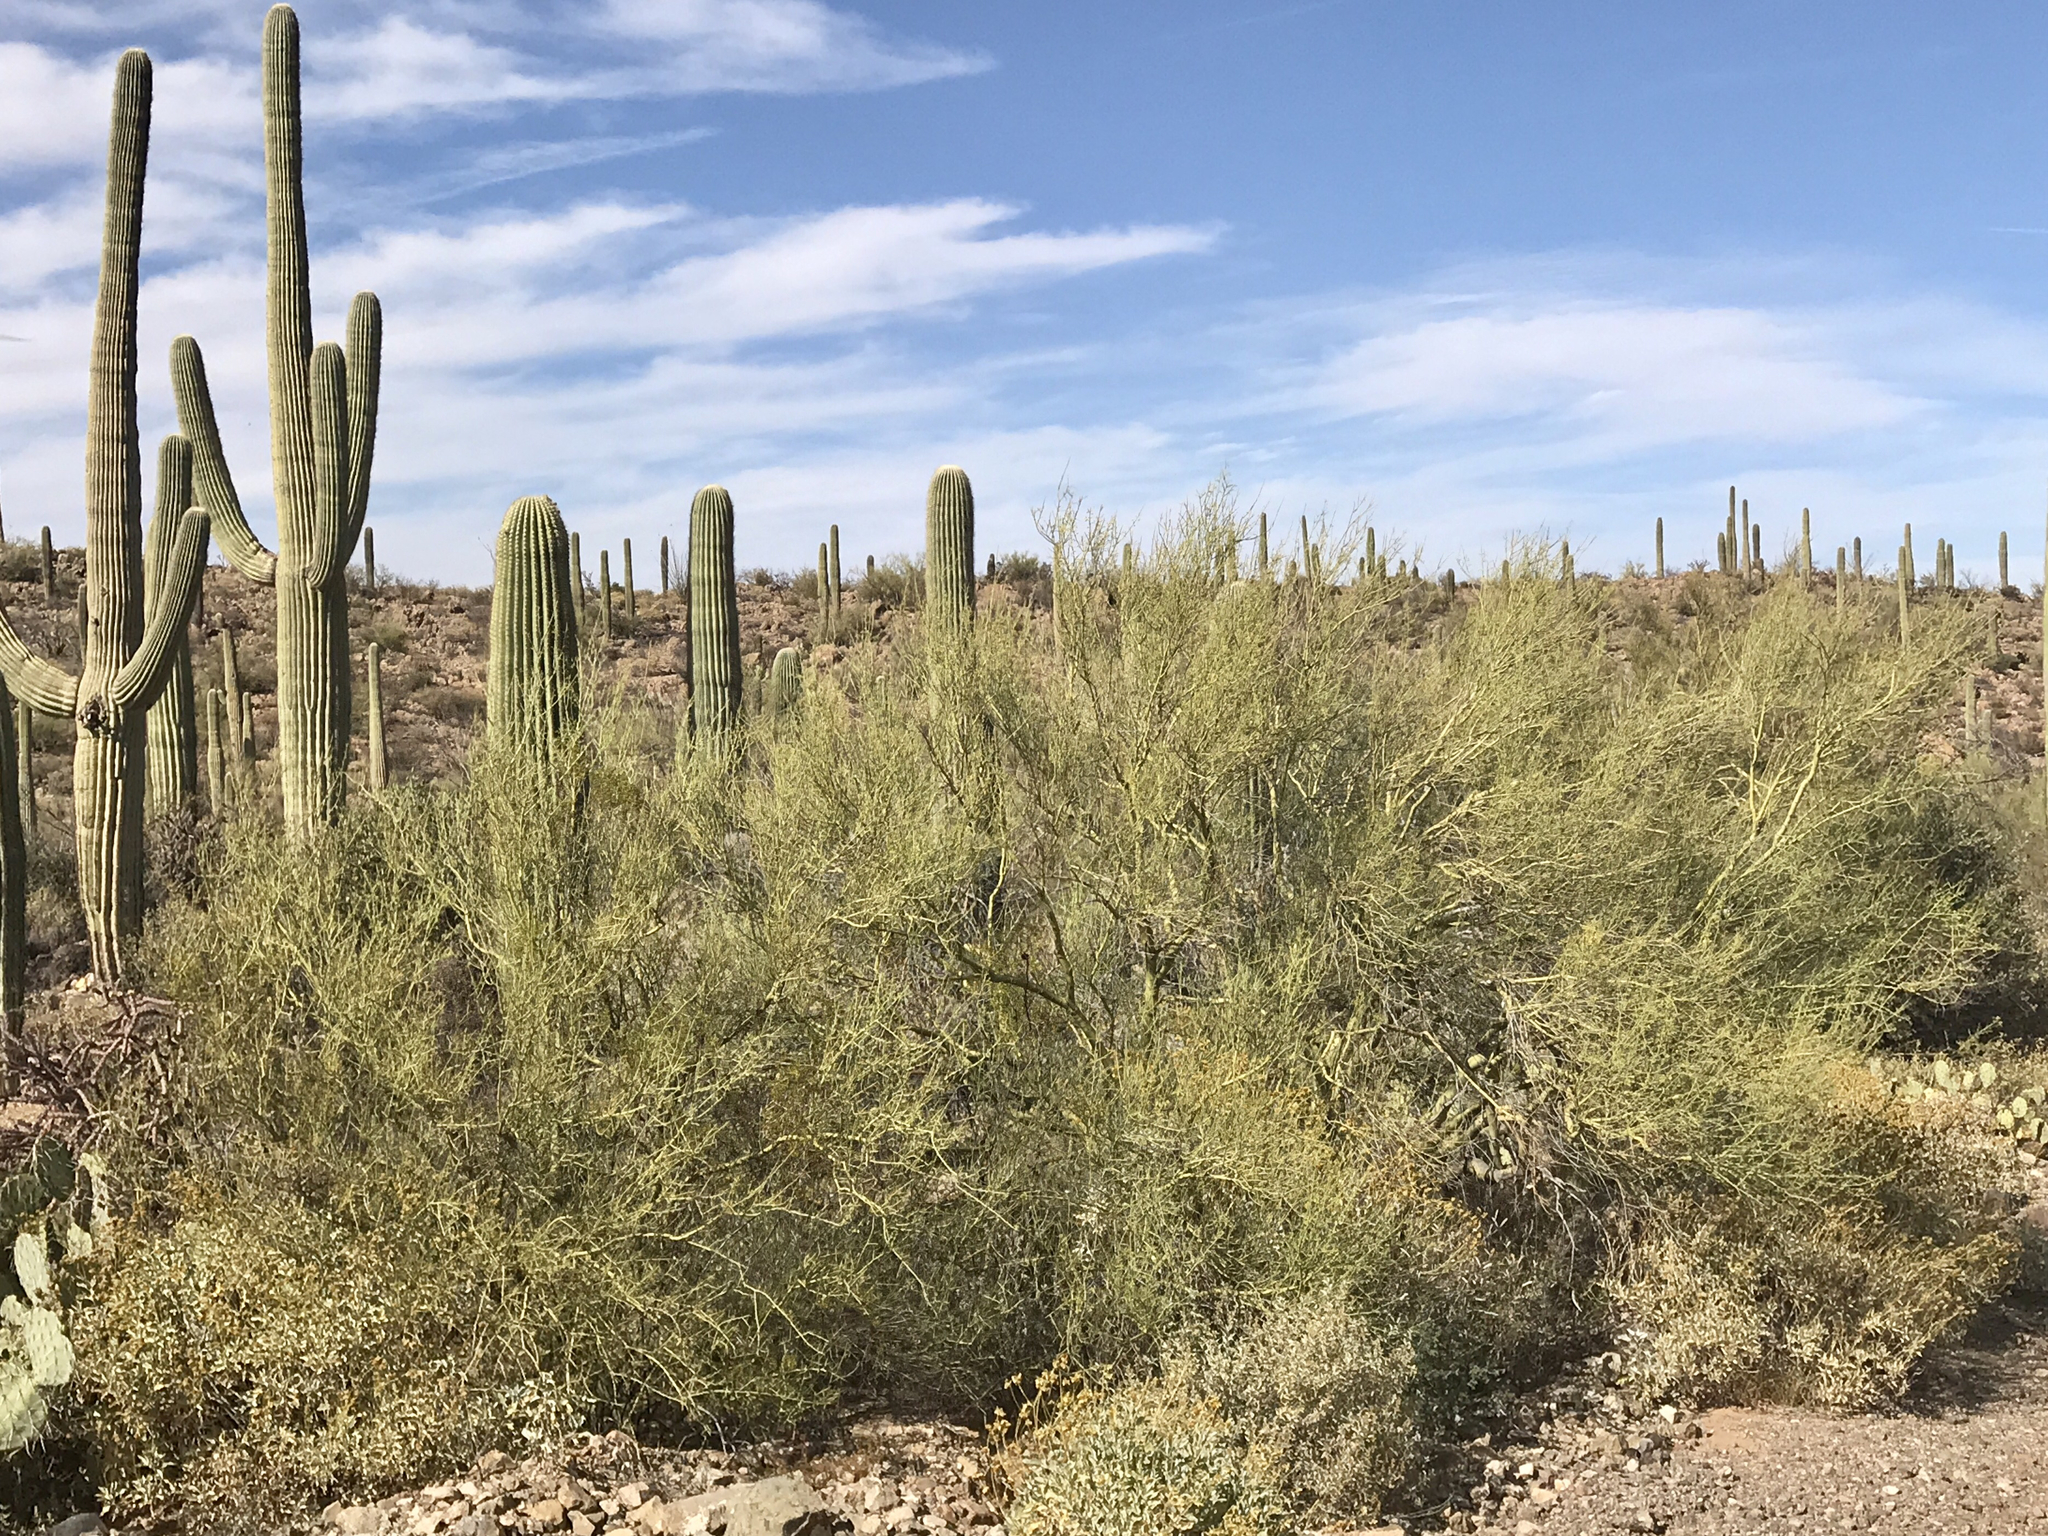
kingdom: Plantae
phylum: Tracheophyta
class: Magnoliopsida
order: Fabales
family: Fabaceae
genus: Parkinsonia
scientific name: Parkinsonia microphylla
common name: Yellow paloverde
